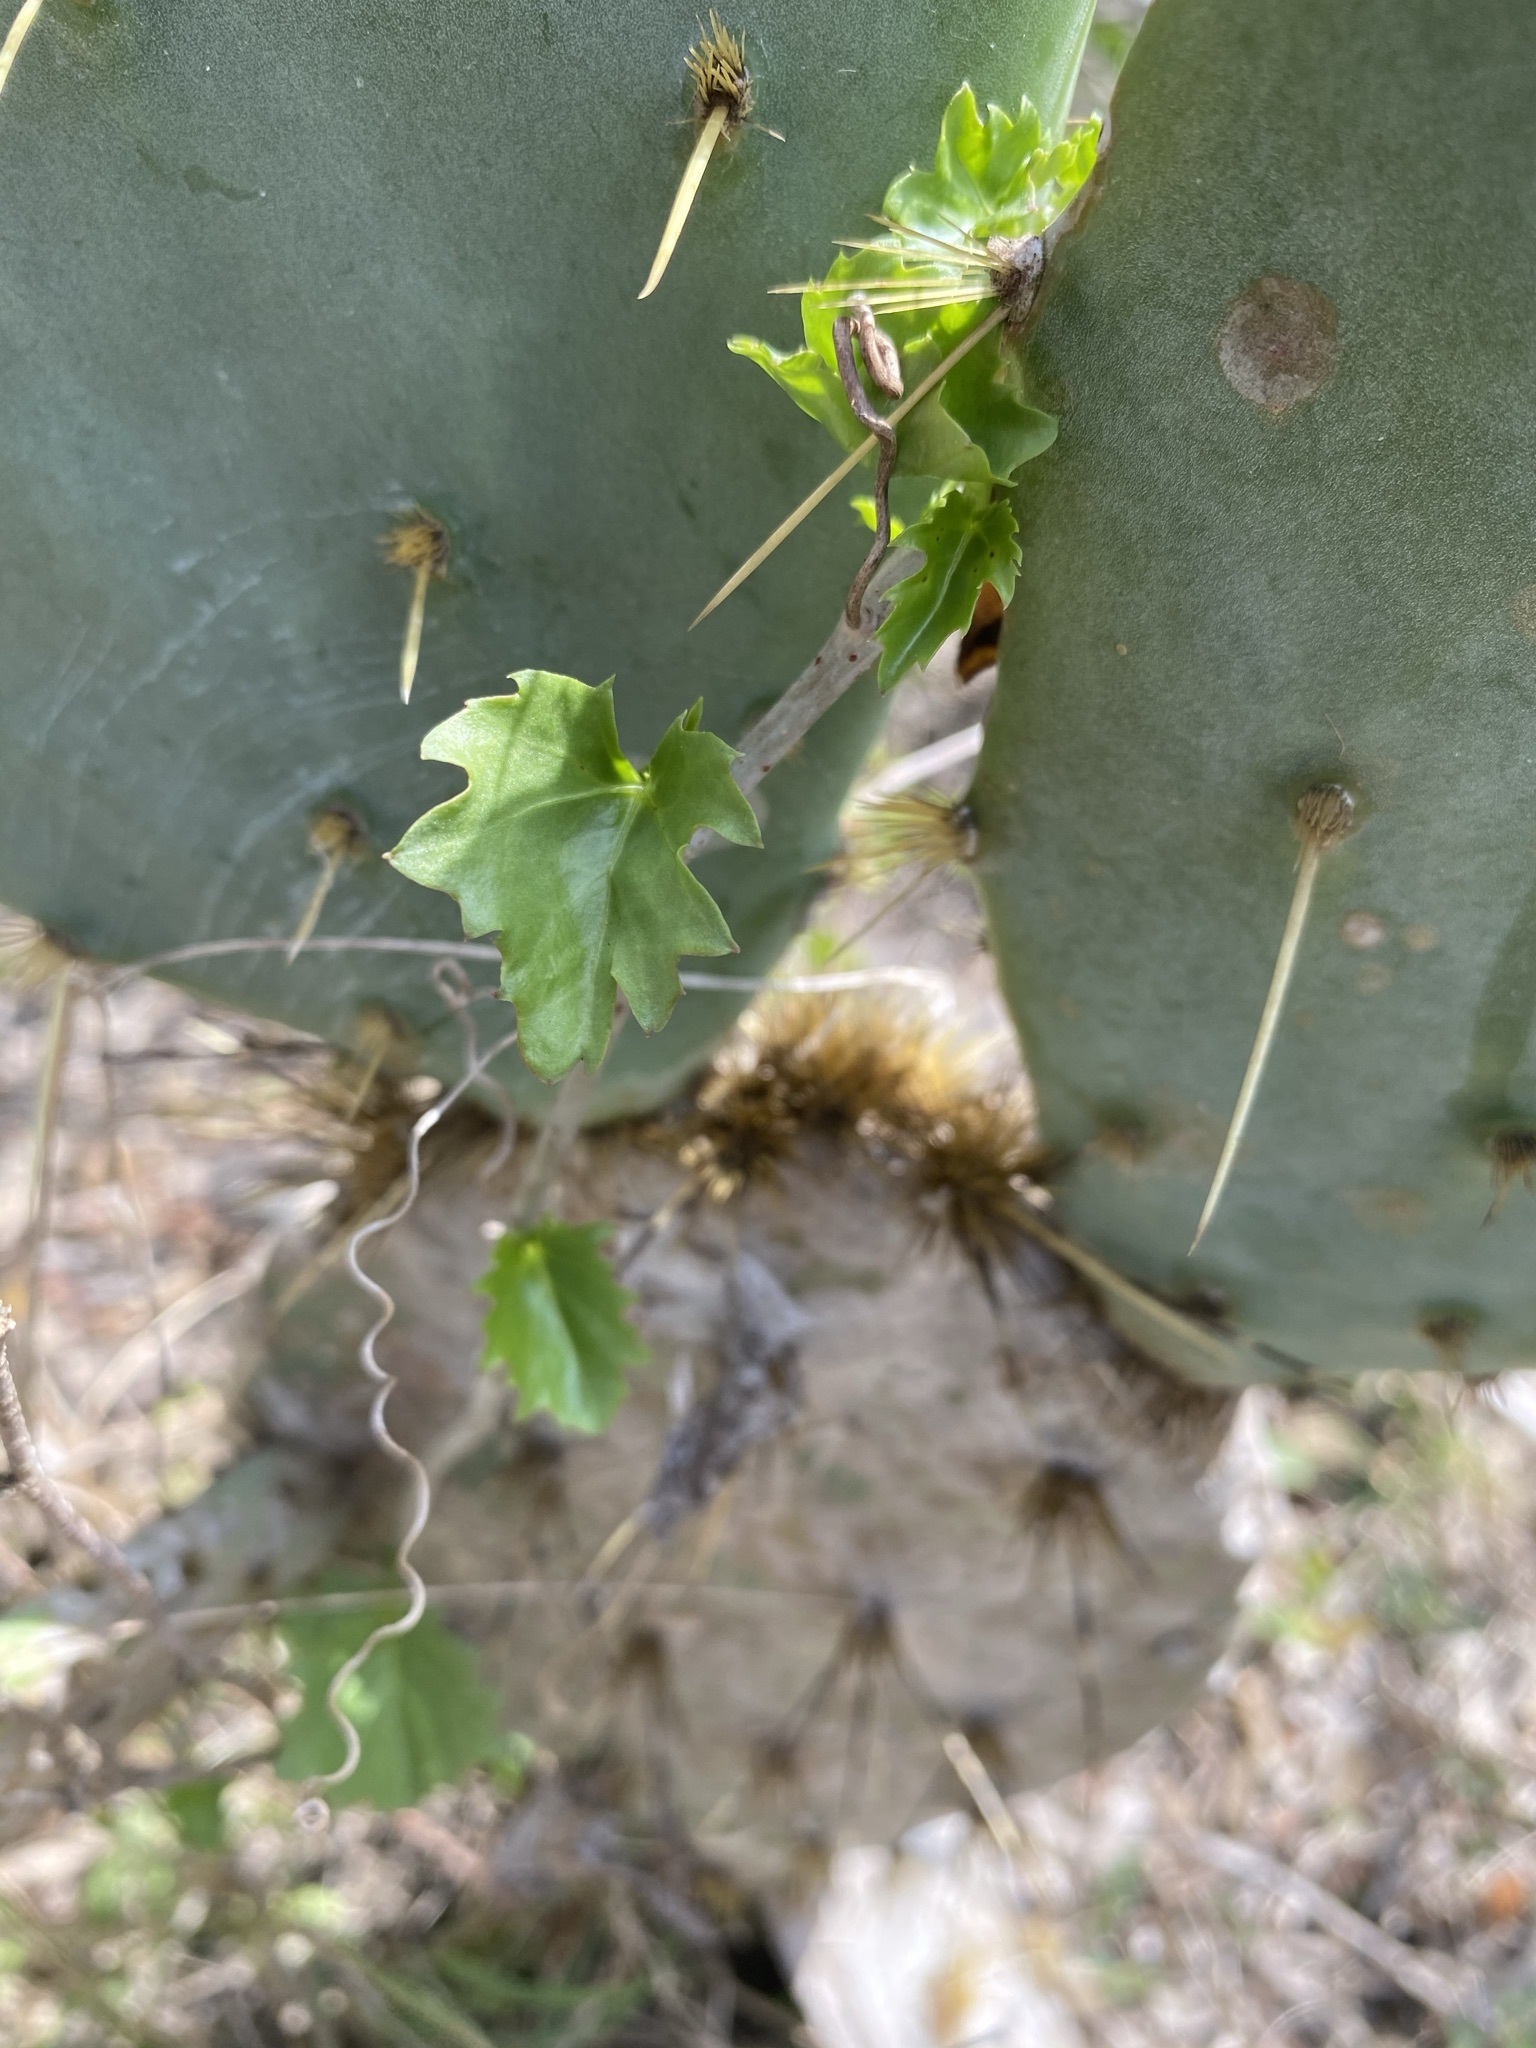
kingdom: Plantae
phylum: Tracheophyta
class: Magnoliopsida
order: Vitales
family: Vitaceae
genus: Cissus
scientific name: Cissus trifoliata
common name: Vine-sorrel
